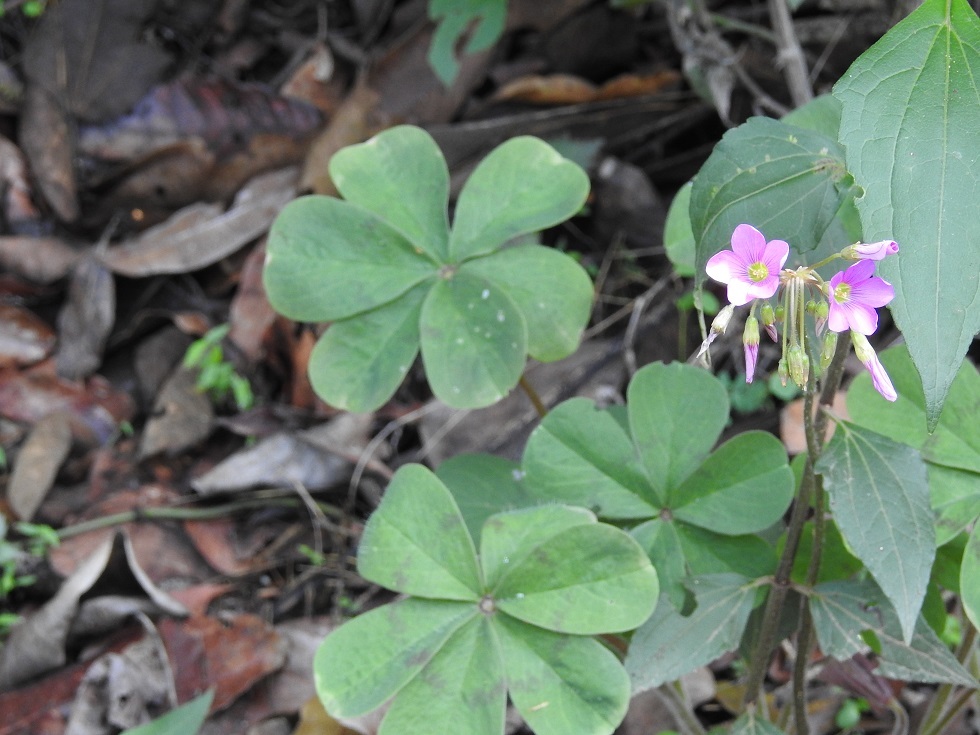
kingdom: Plantae
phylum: Tracheophyta
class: Magnoliopsida
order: Oxalidales
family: Oxalidaceae
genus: Oxalis
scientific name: Oxalis nelsonii
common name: Sorrel
